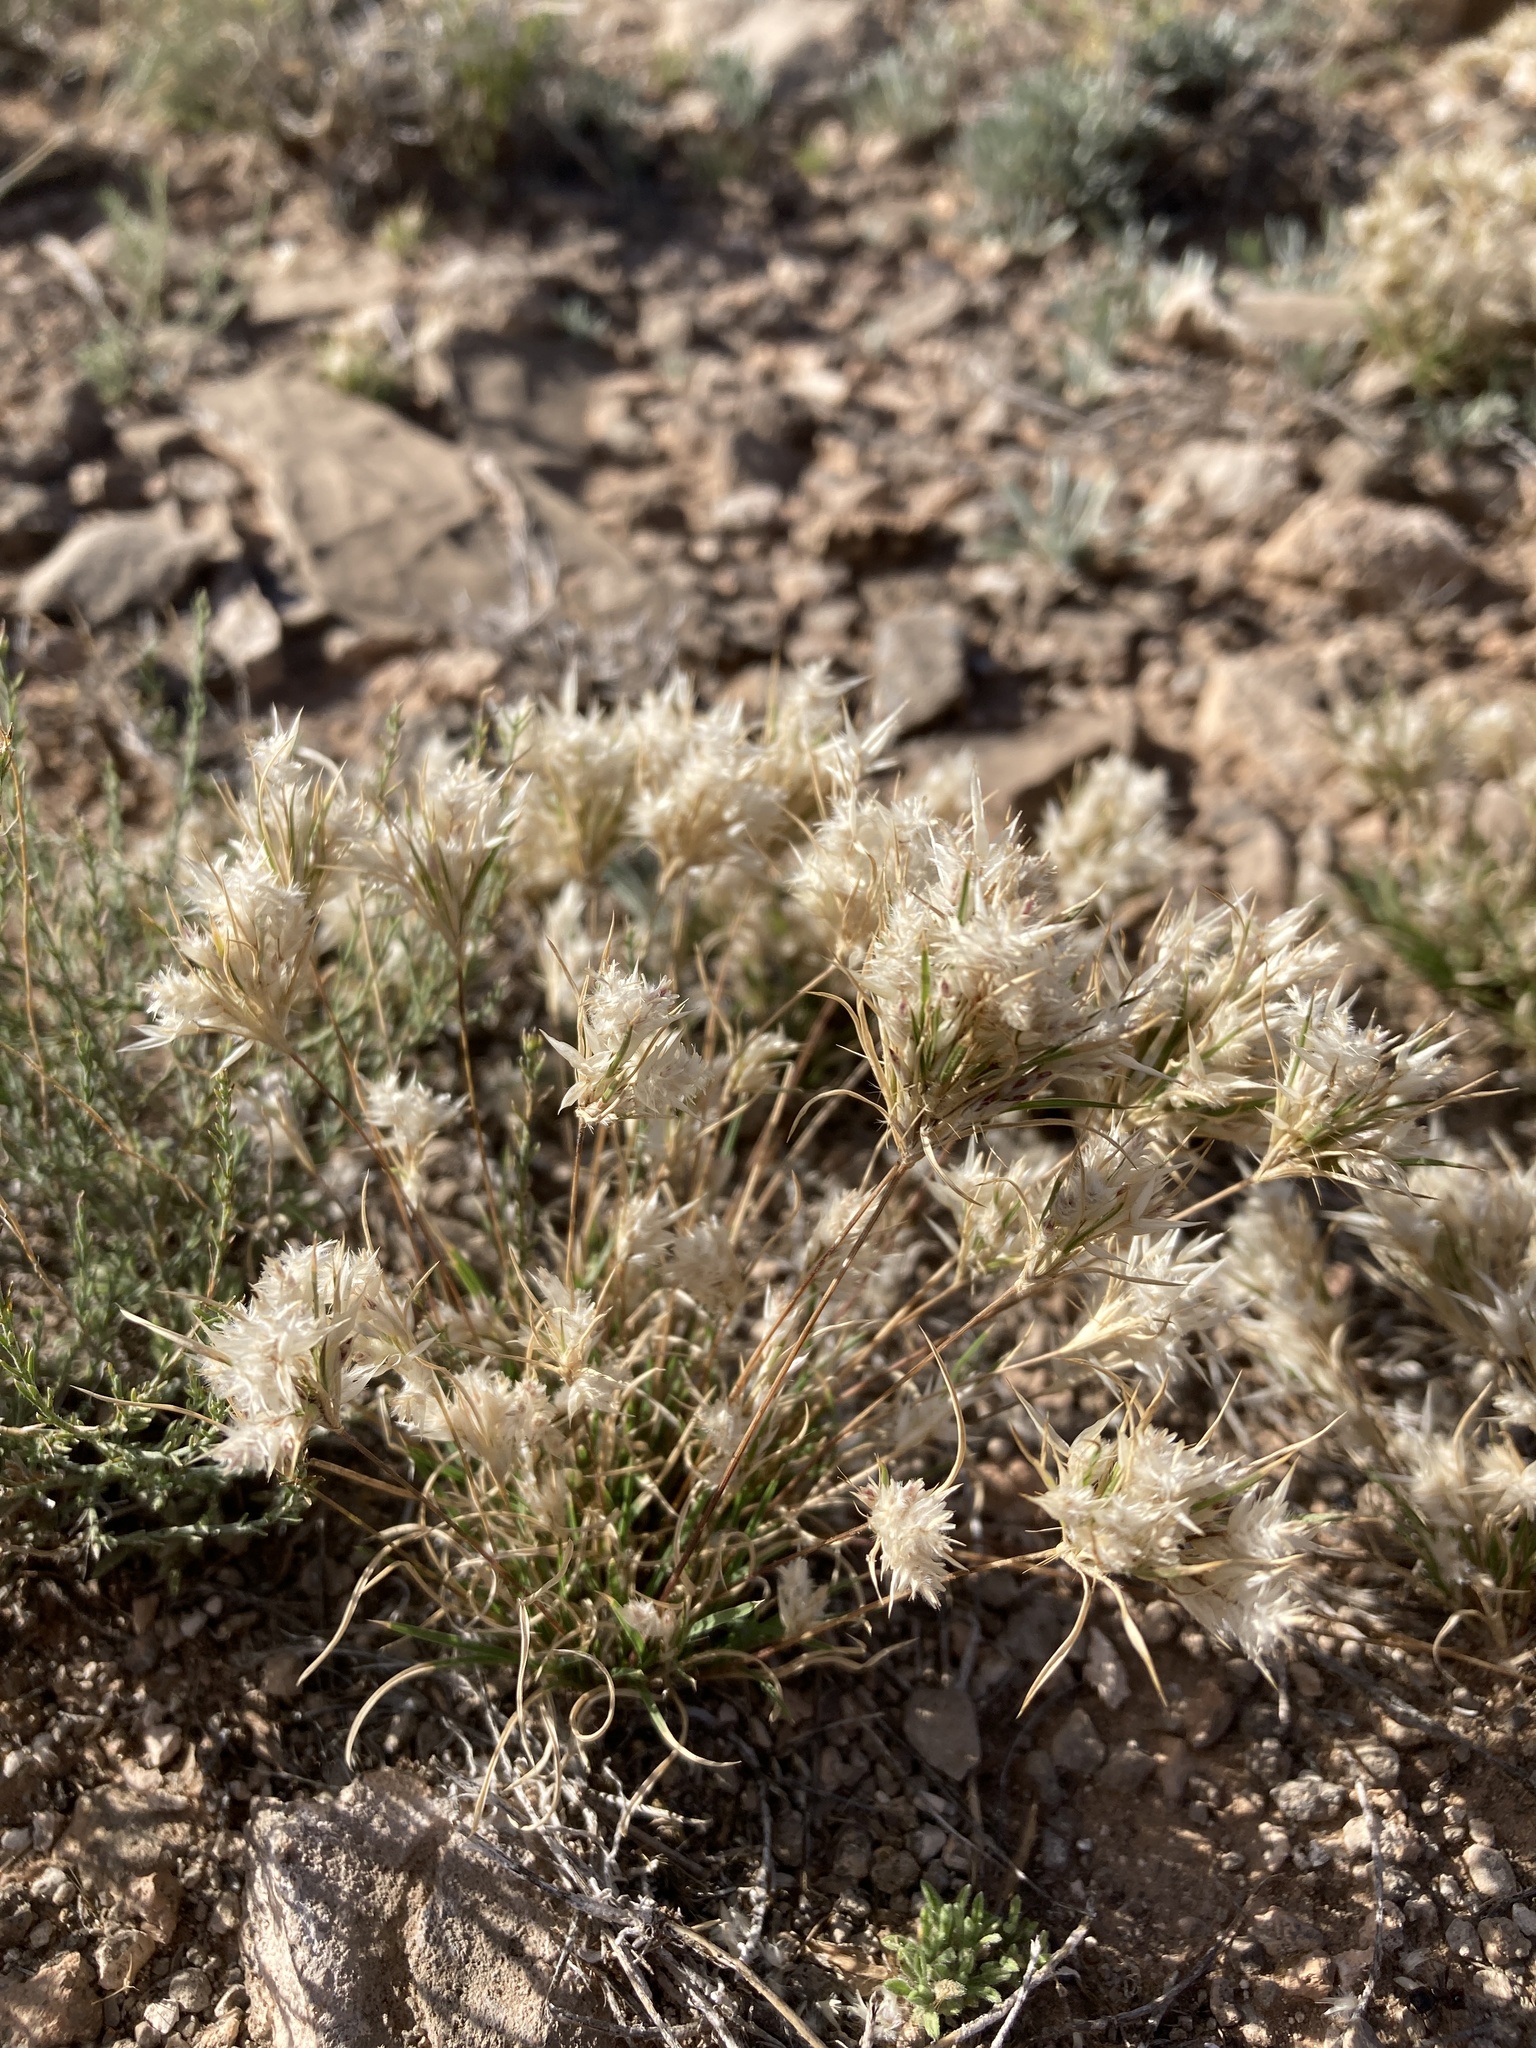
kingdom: Plantae
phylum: Tracheophyta
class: Liliopsida
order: Poales
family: Poaceae
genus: Dasyochloa
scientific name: Dasyochloa pulchella
